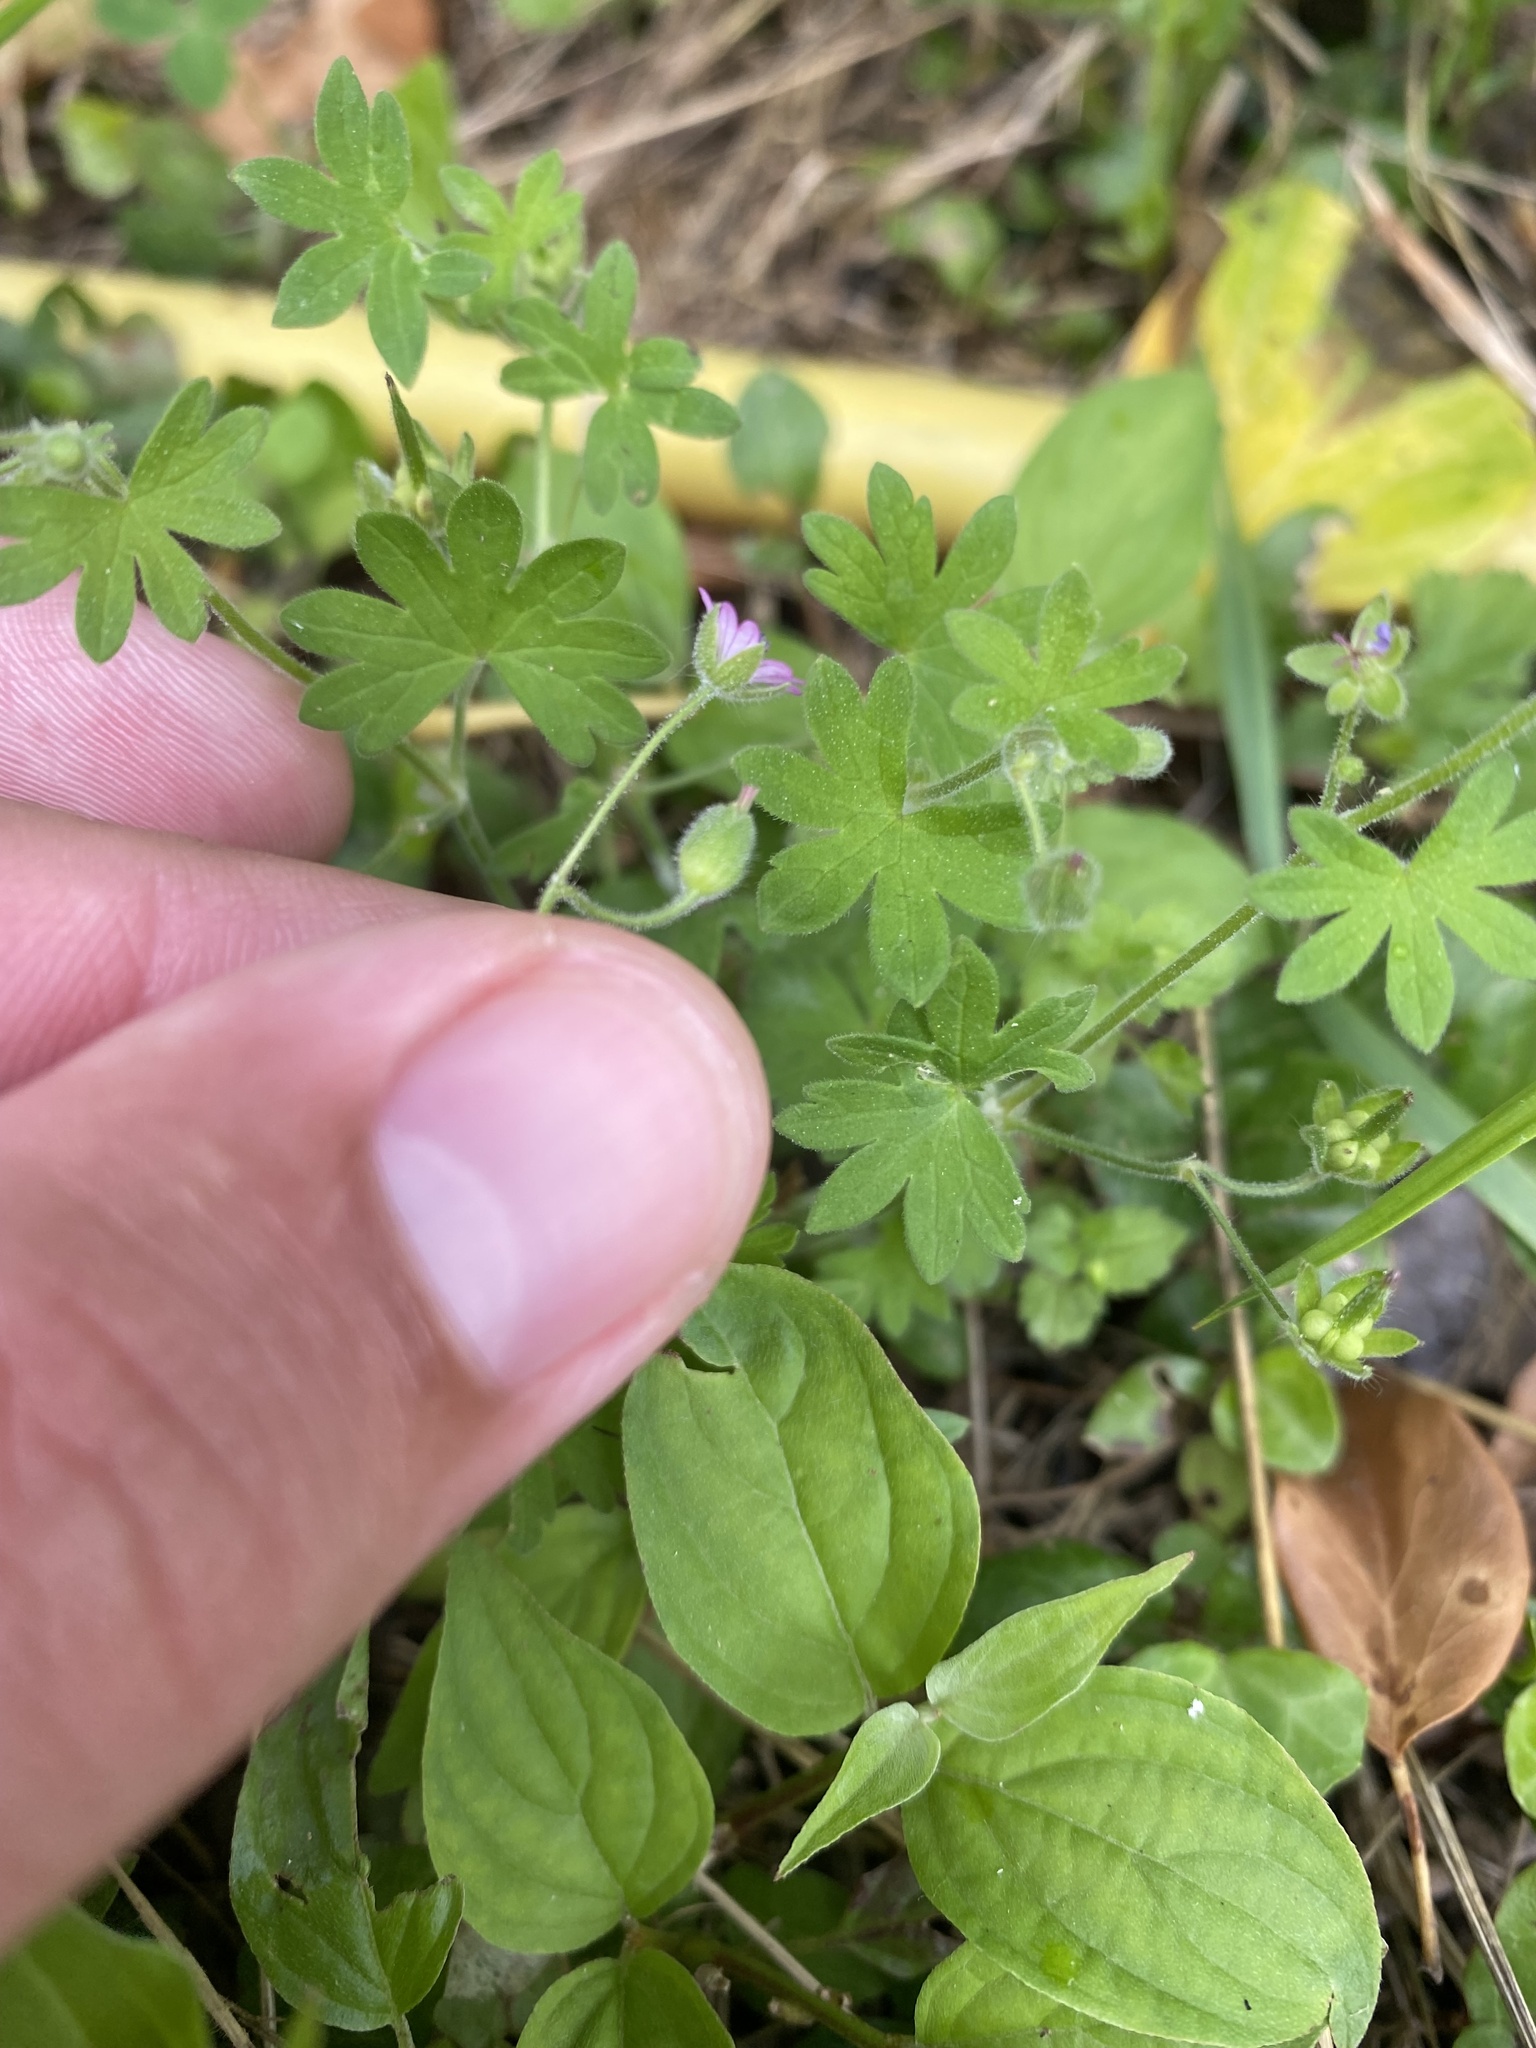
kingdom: Plantae
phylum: Tracheophyta
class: Magnoliopsida
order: Geraniales
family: Geraniaceae
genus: Geranium
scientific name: Geranium molle
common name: Dove's-foot crane's-bill
